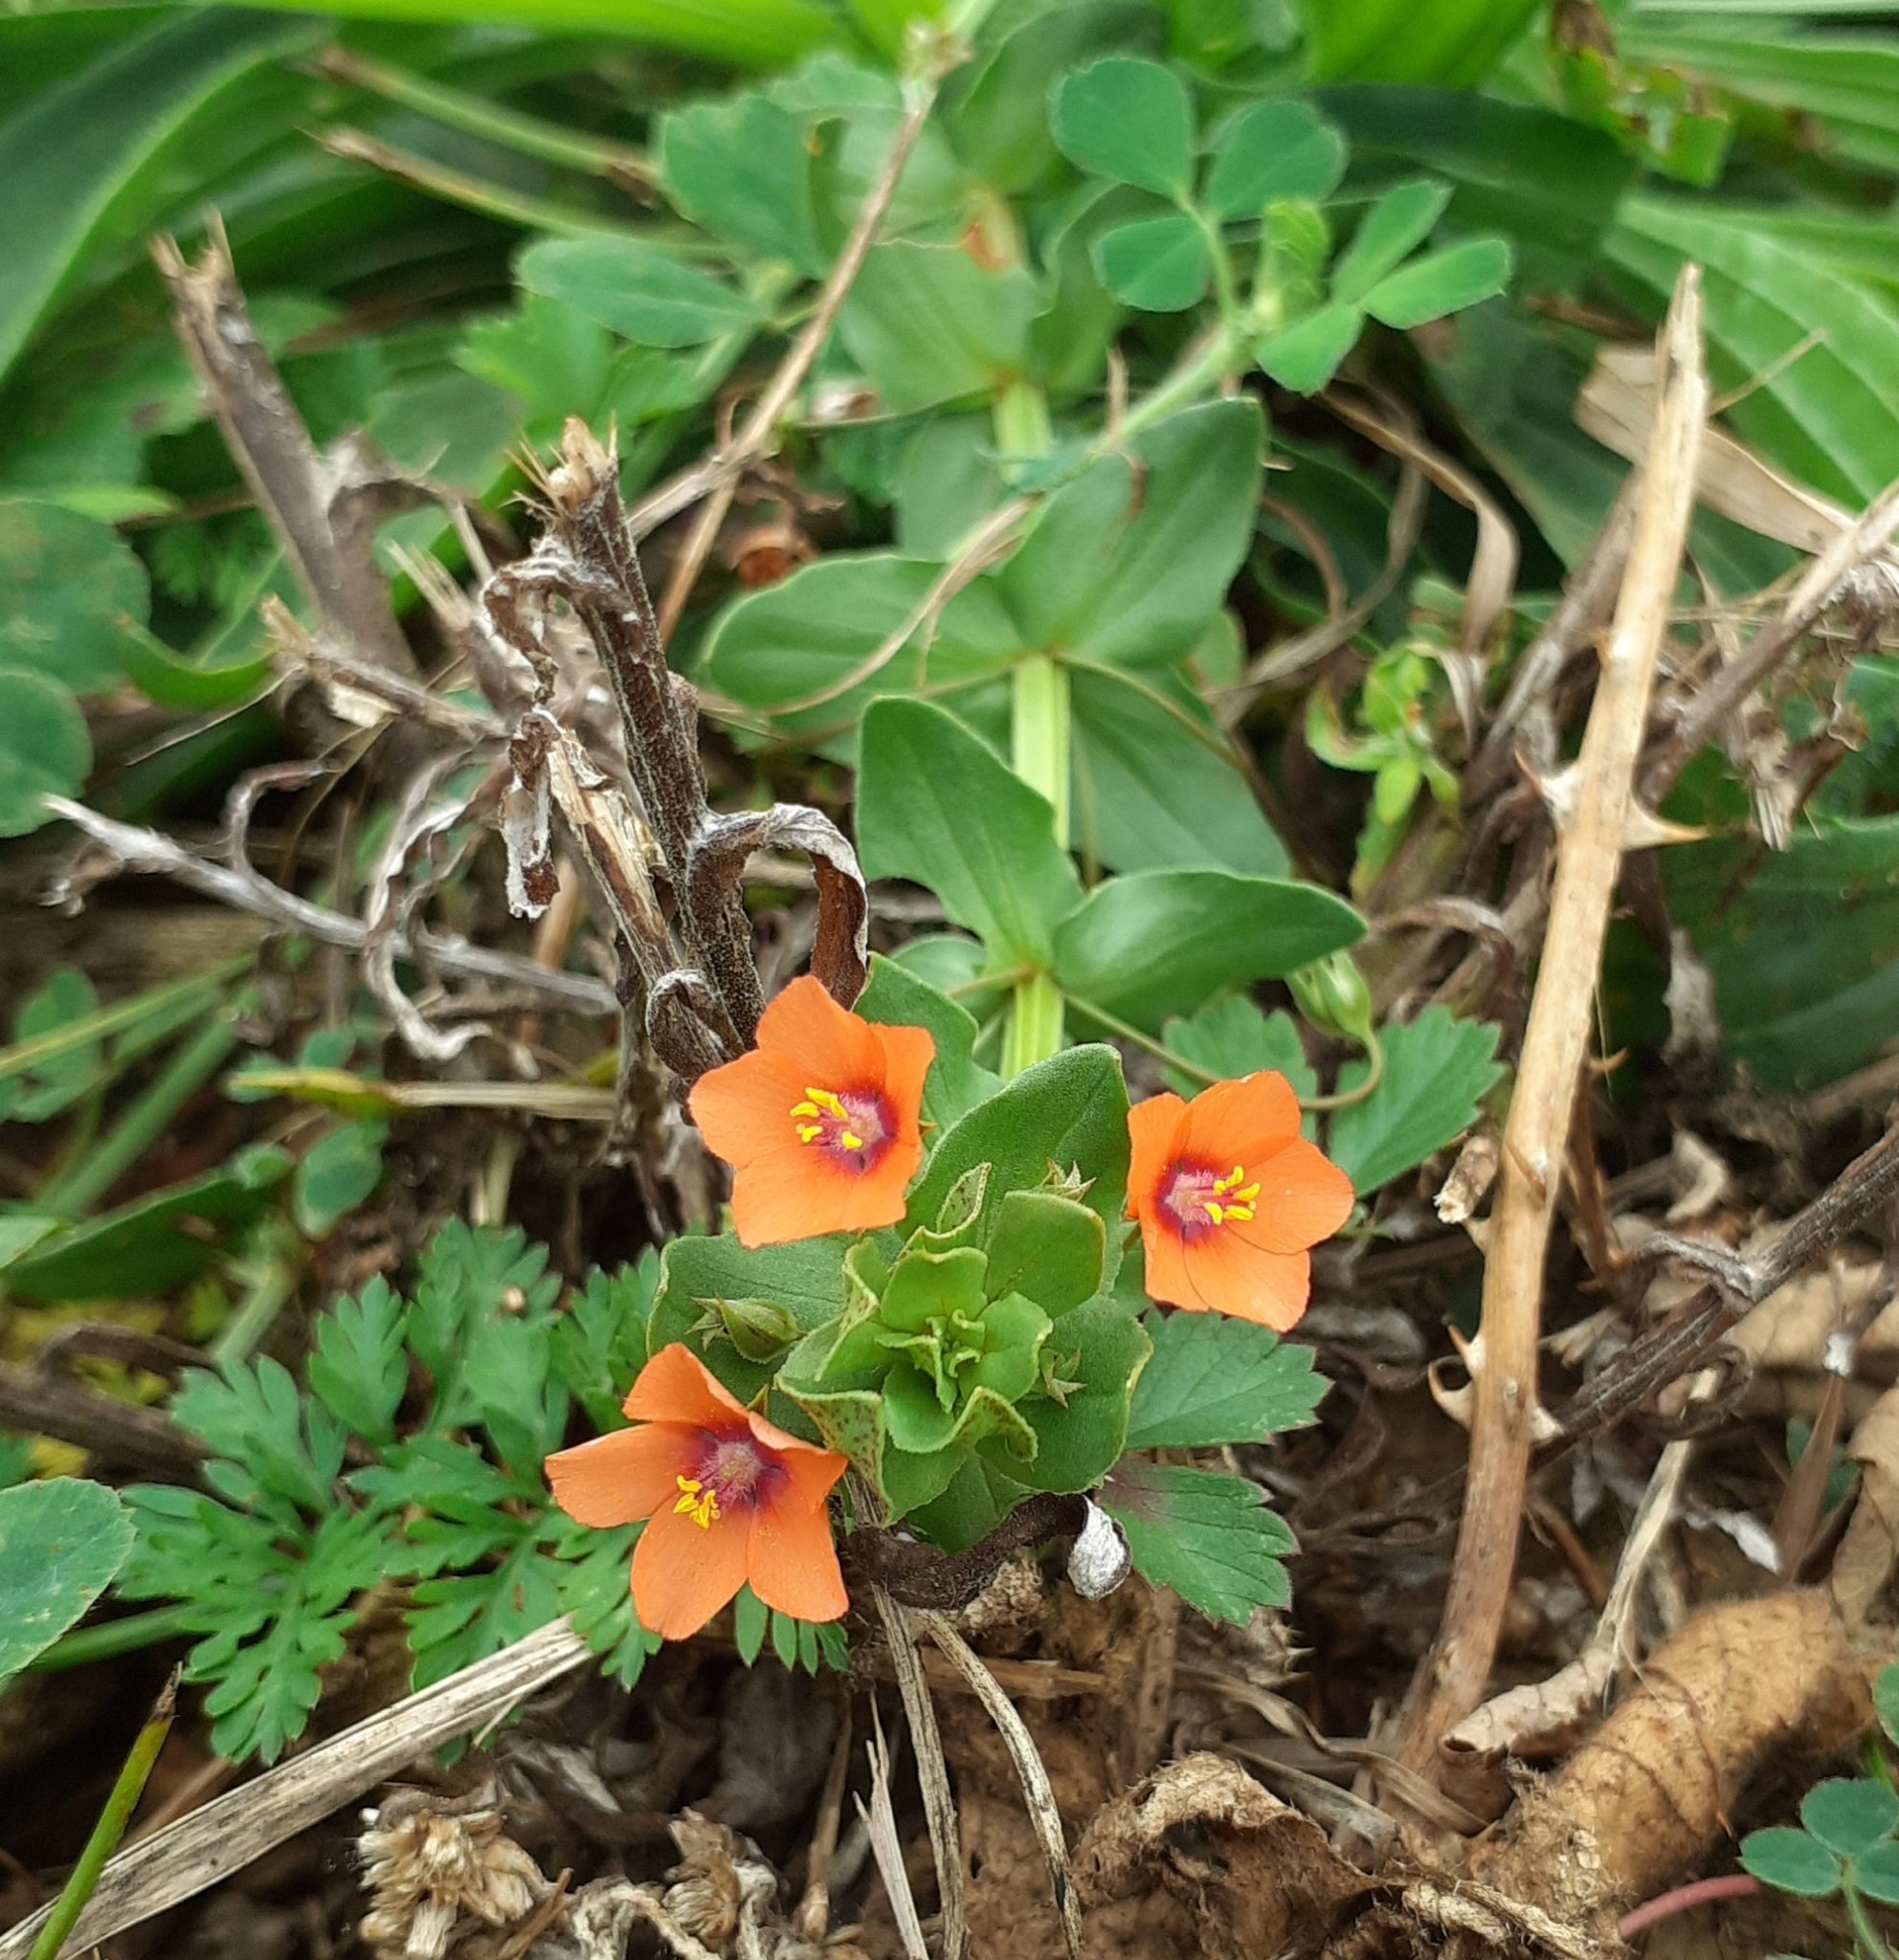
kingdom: Plantae
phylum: Tracheophyta
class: Magnoliopsida
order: Ericales
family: Primulaceae
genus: Lysimachia
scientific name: Lysimachia arvensis
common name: Scarlet pimpernel
